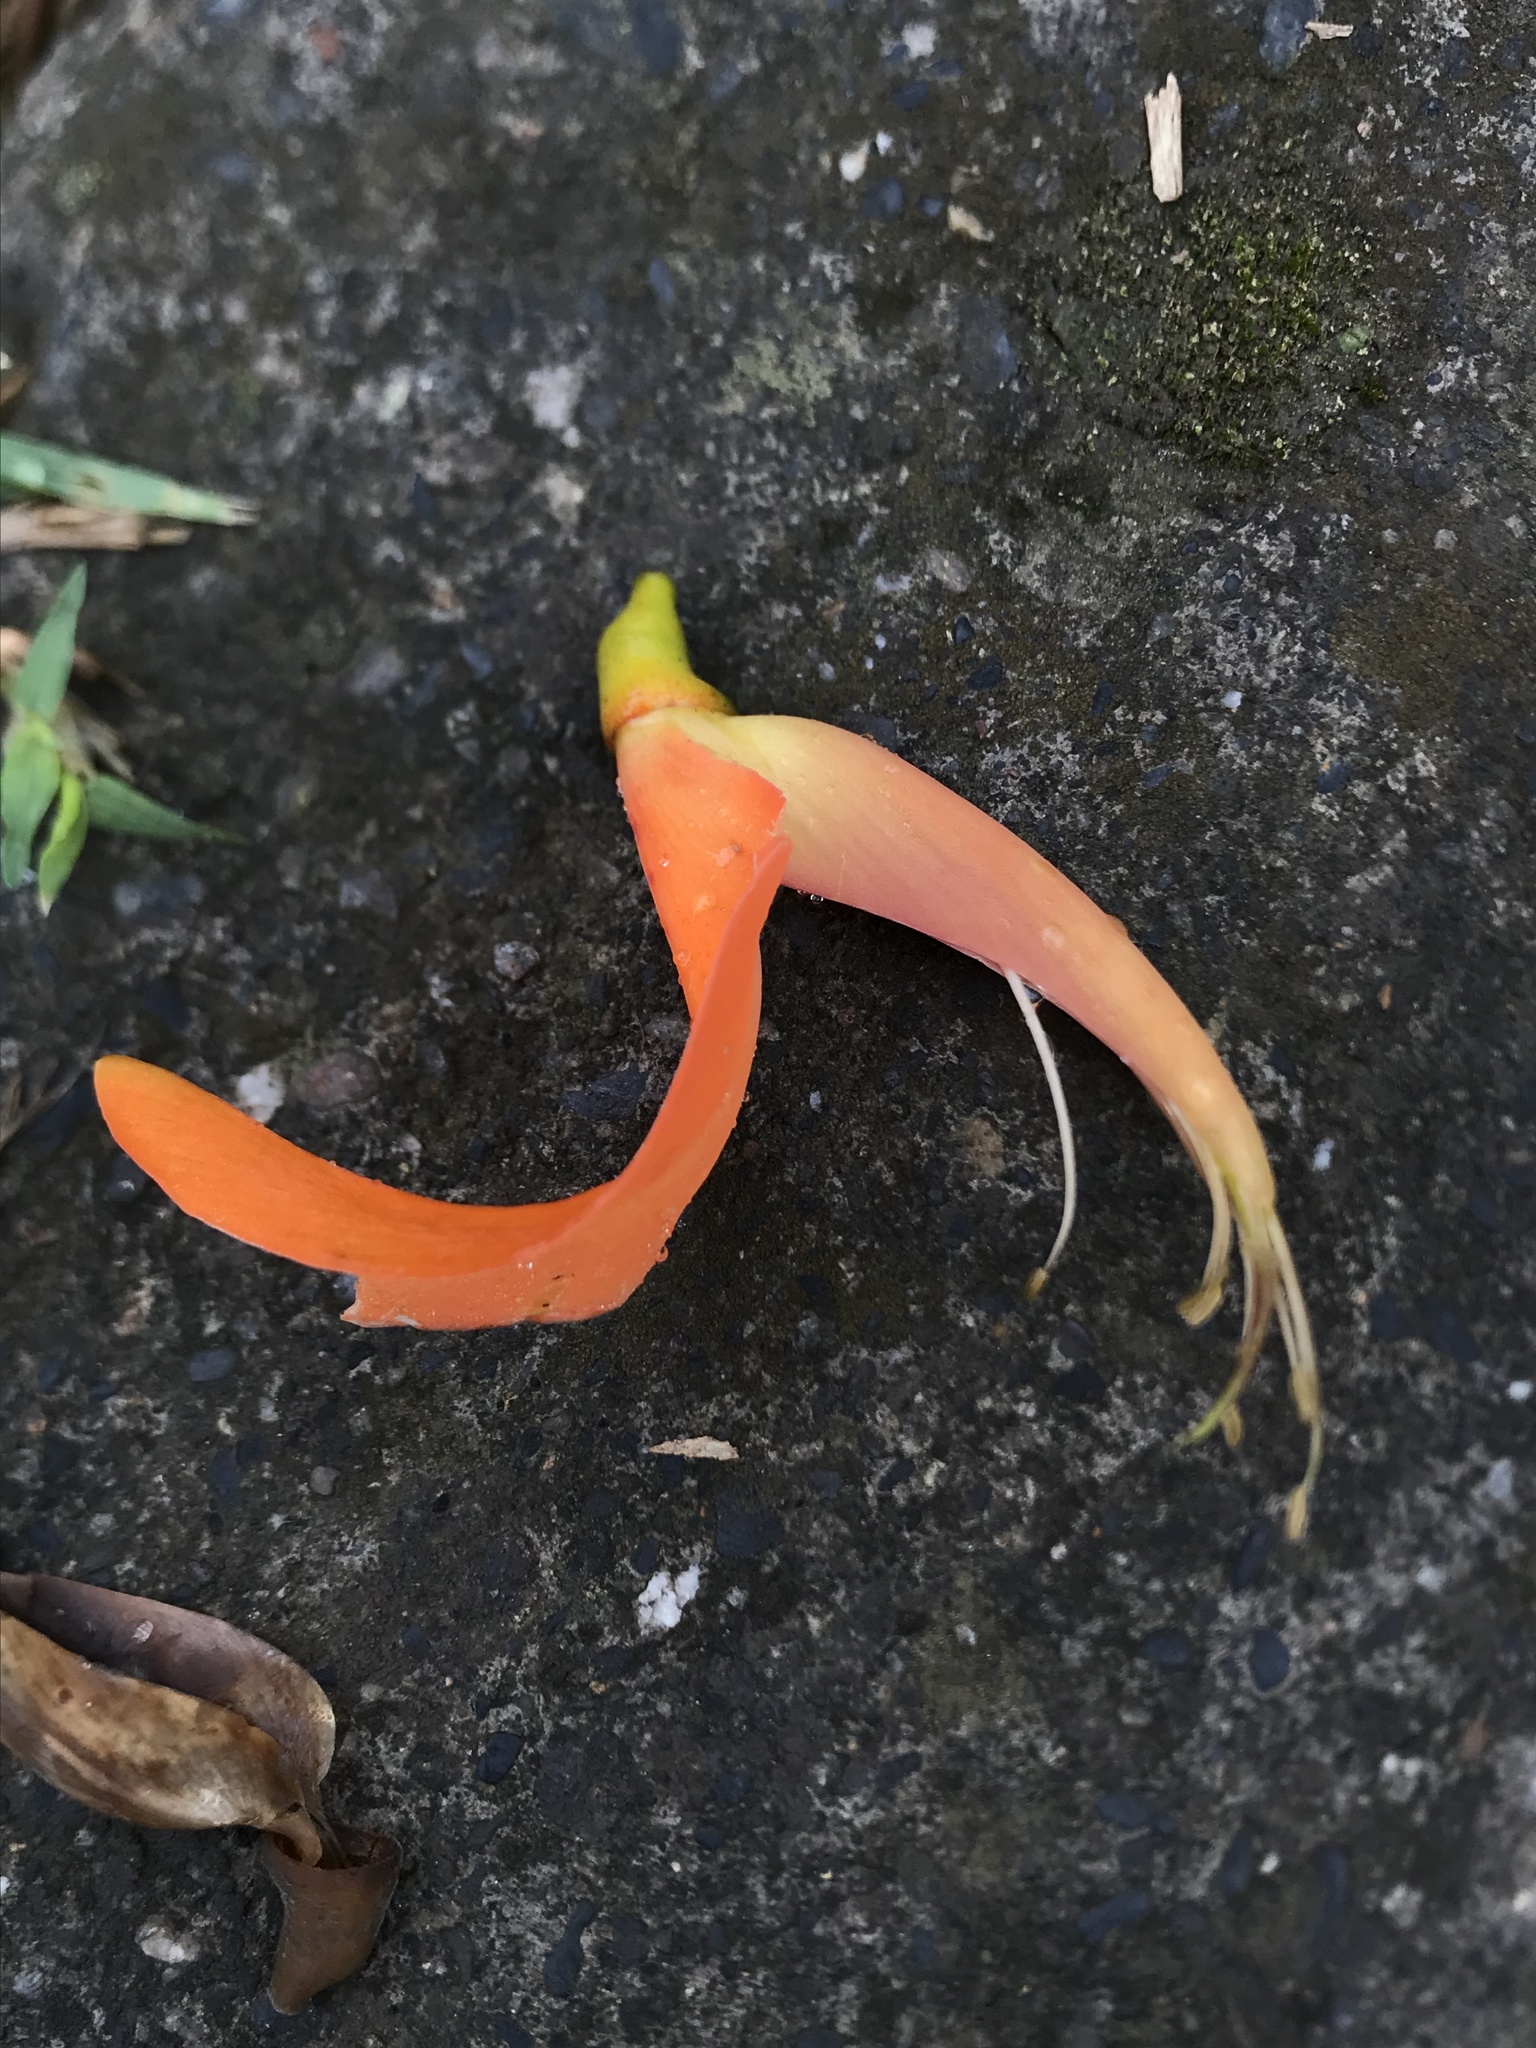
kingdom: Plantae
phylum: Tracheophyta
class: Magnoliopsida
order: Fabales
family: Fabaceae
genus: Erythrina
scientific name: Erythrina poeppigiana
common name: Coral tree
